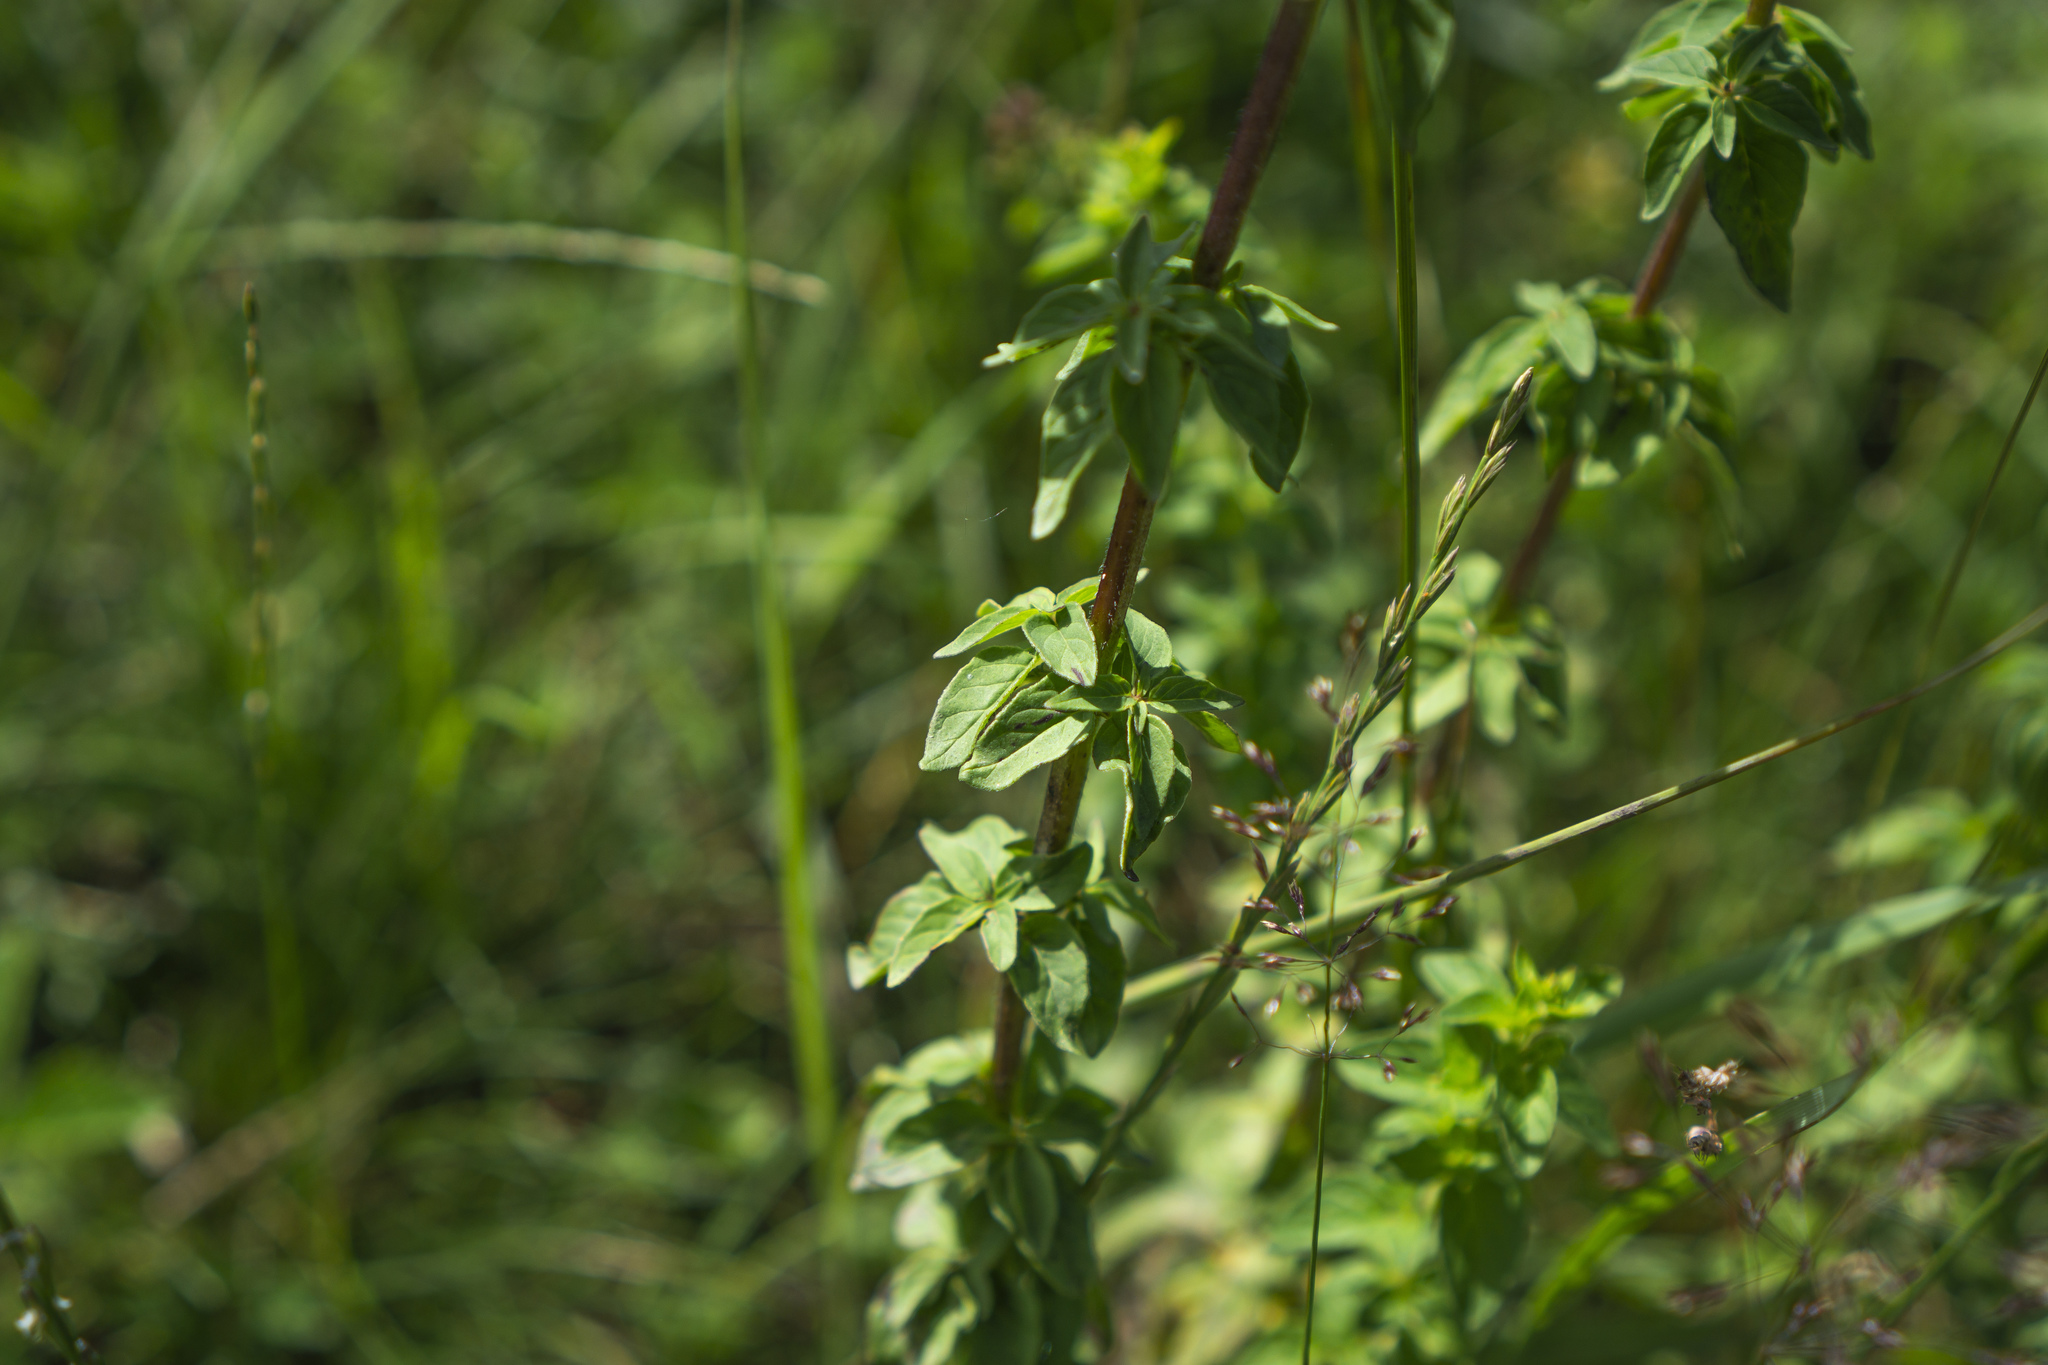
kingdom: Plantae
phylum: Tracheophyta
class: Magnoliopsida
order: Lamiales
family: Lamiaceae
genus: Origanum
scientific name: Origanum vulgare
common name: Wild marjoram
